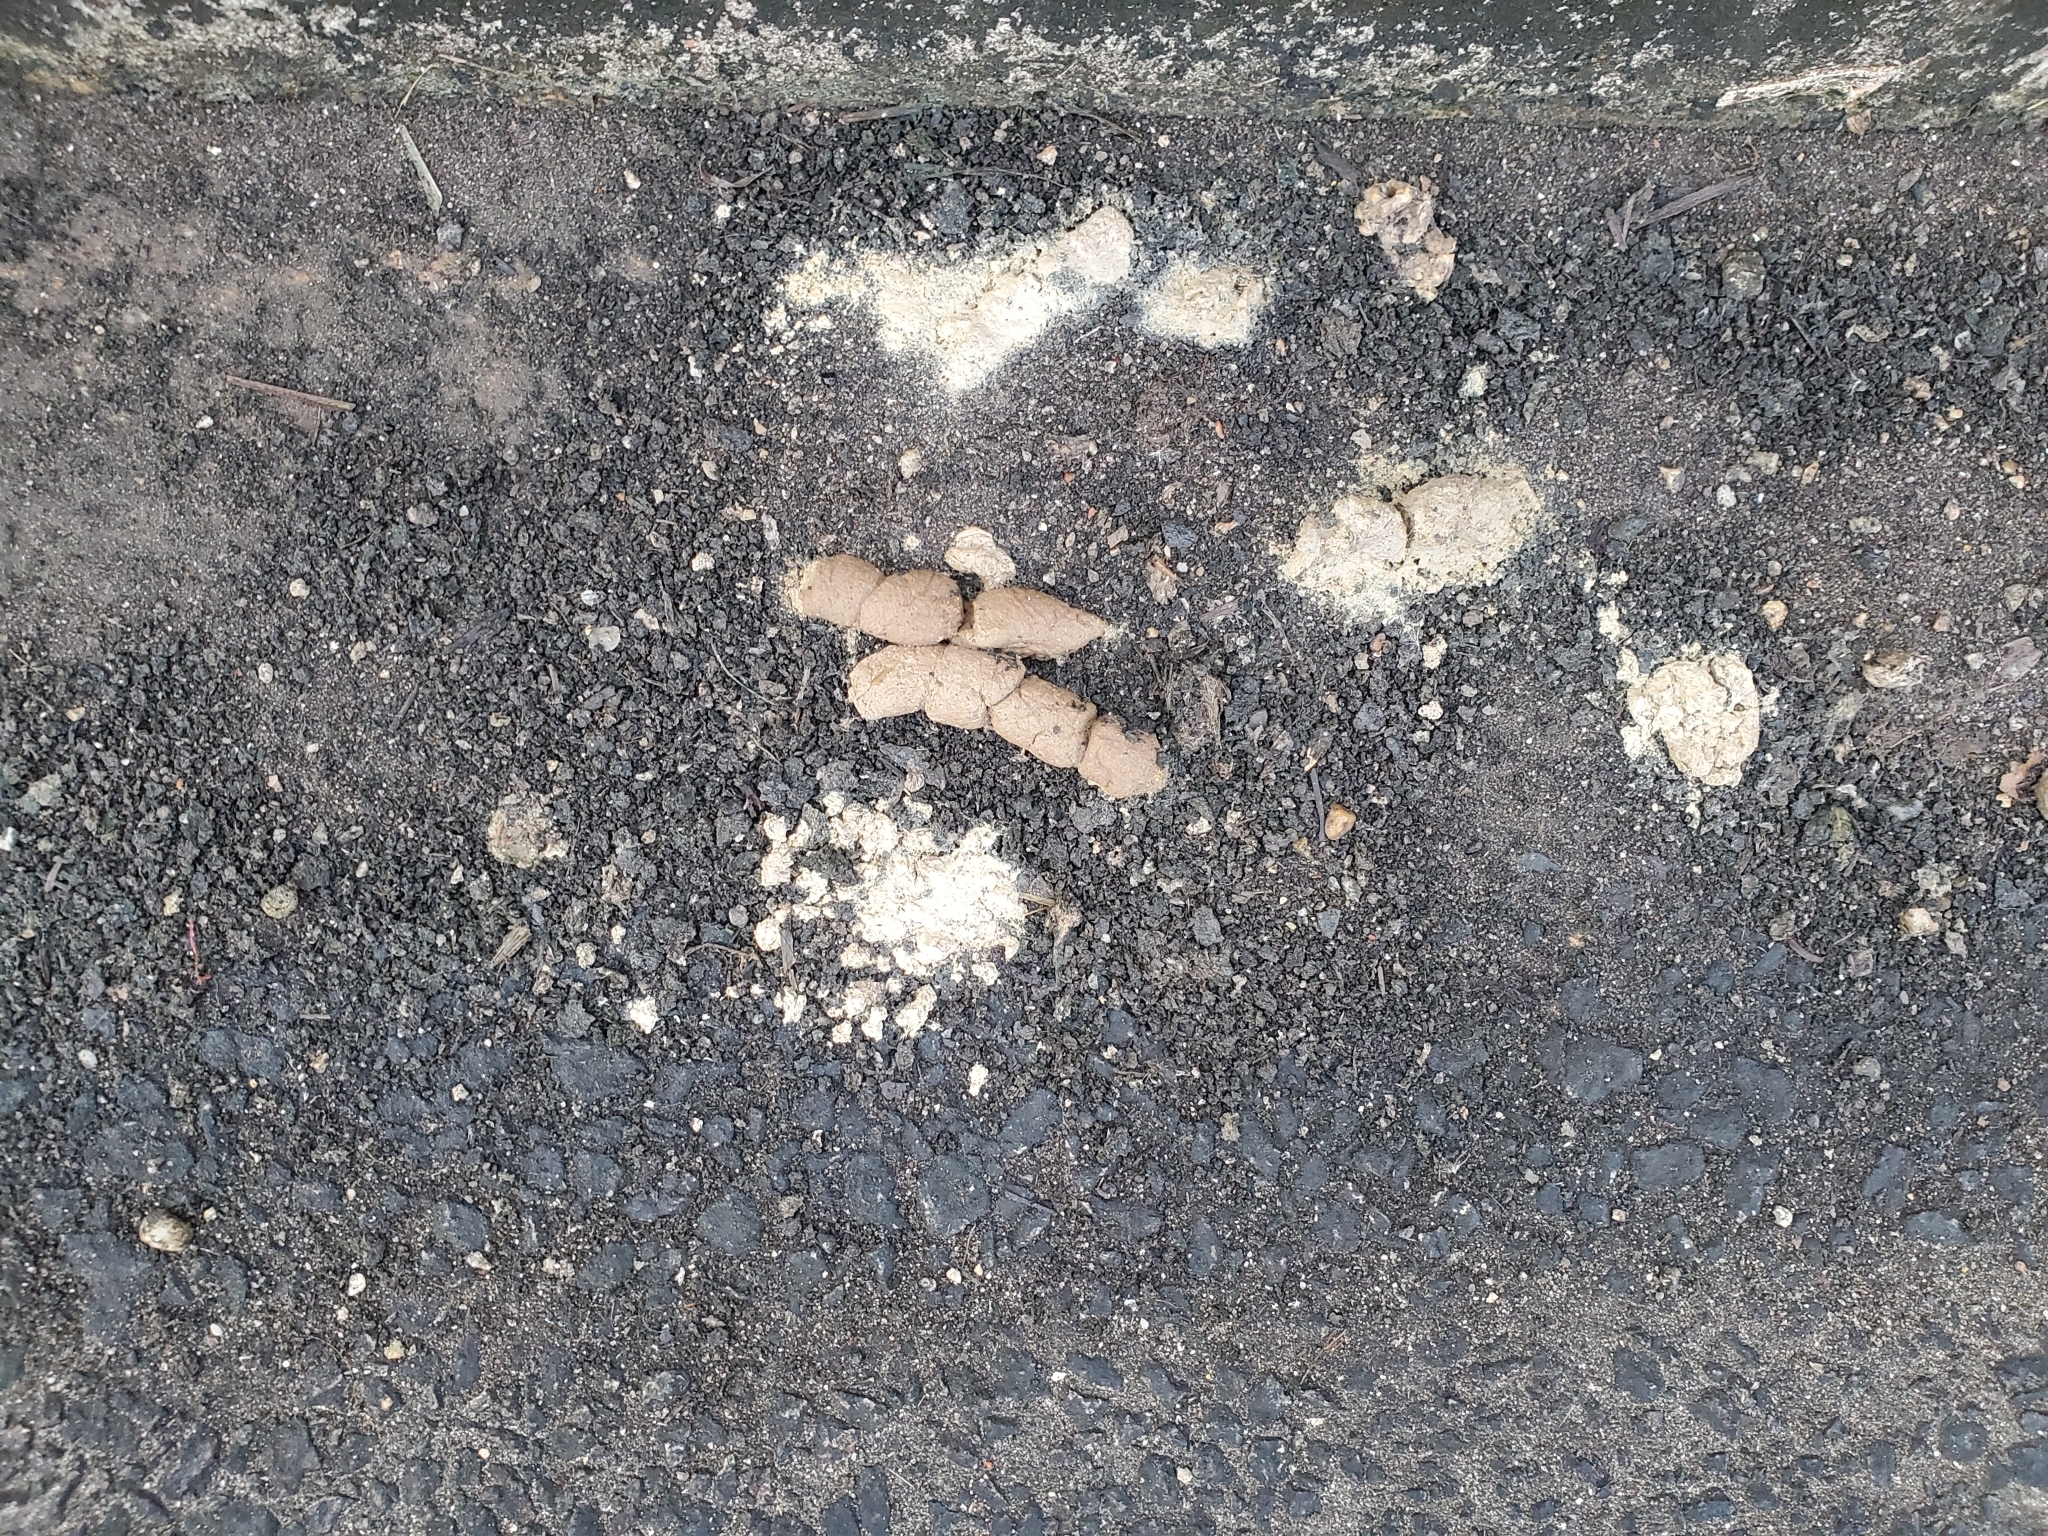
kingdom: Animalia
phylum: Chordata
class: Mammalia
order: Carnivora
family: Procyonidae
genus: Procyon
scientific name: Procyon lotor
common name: Raccoon
